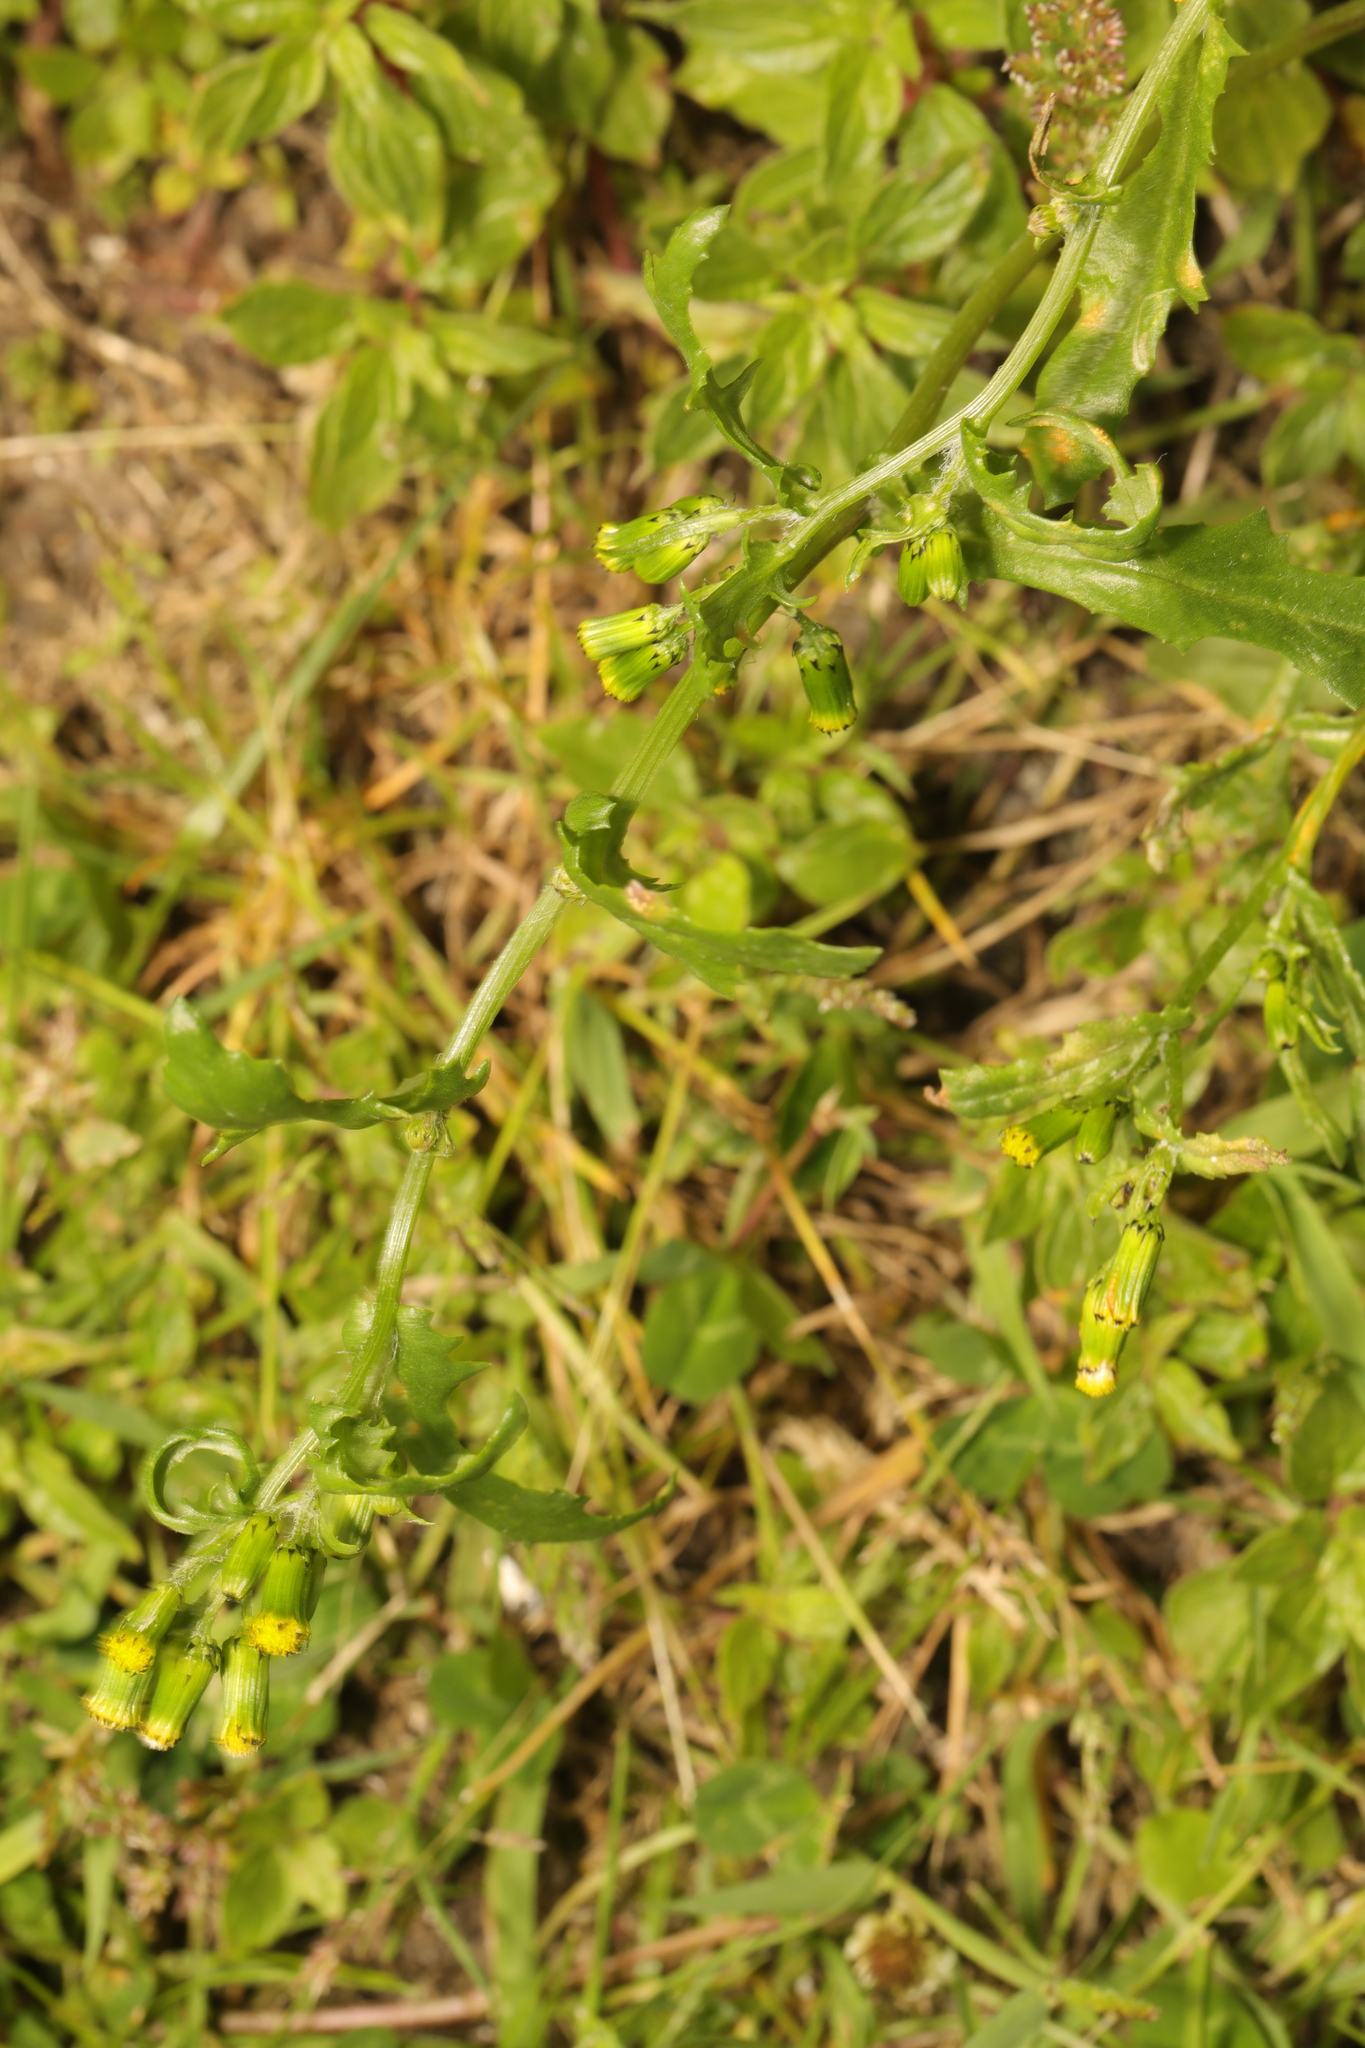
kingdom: Plantae
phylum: Tracheophyta
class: Magnoliopsida
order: Asterales
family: Asteraceae
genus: Senecio
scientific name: Senecio vulgaris
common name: Old-man-in-the-spring
